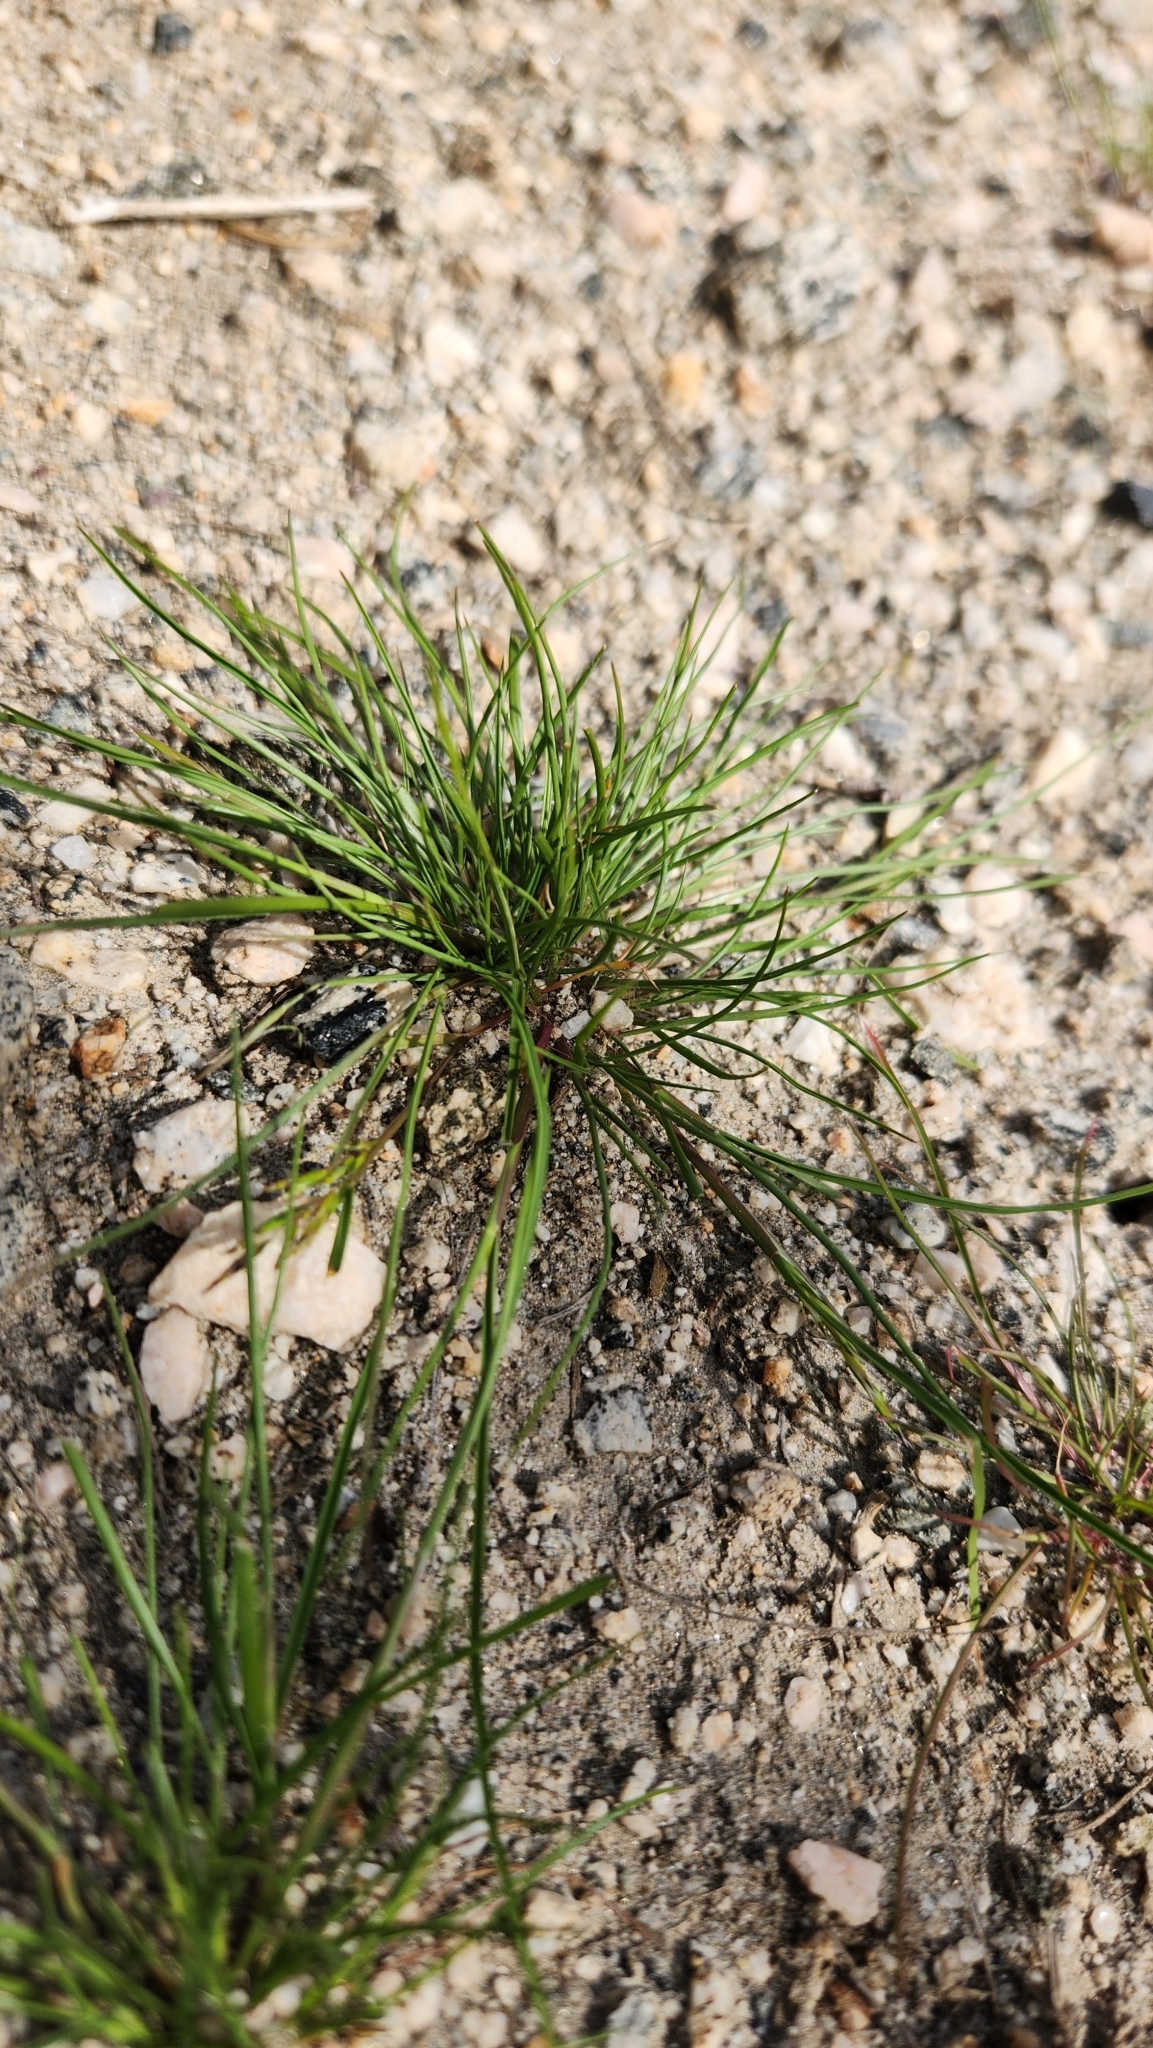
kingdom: Plantae
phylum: Tracheophyta
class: Liliopsida
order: Poales
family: Poaceae
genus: Schismus
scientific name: Schismus barbatus
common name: Kelch-grass
